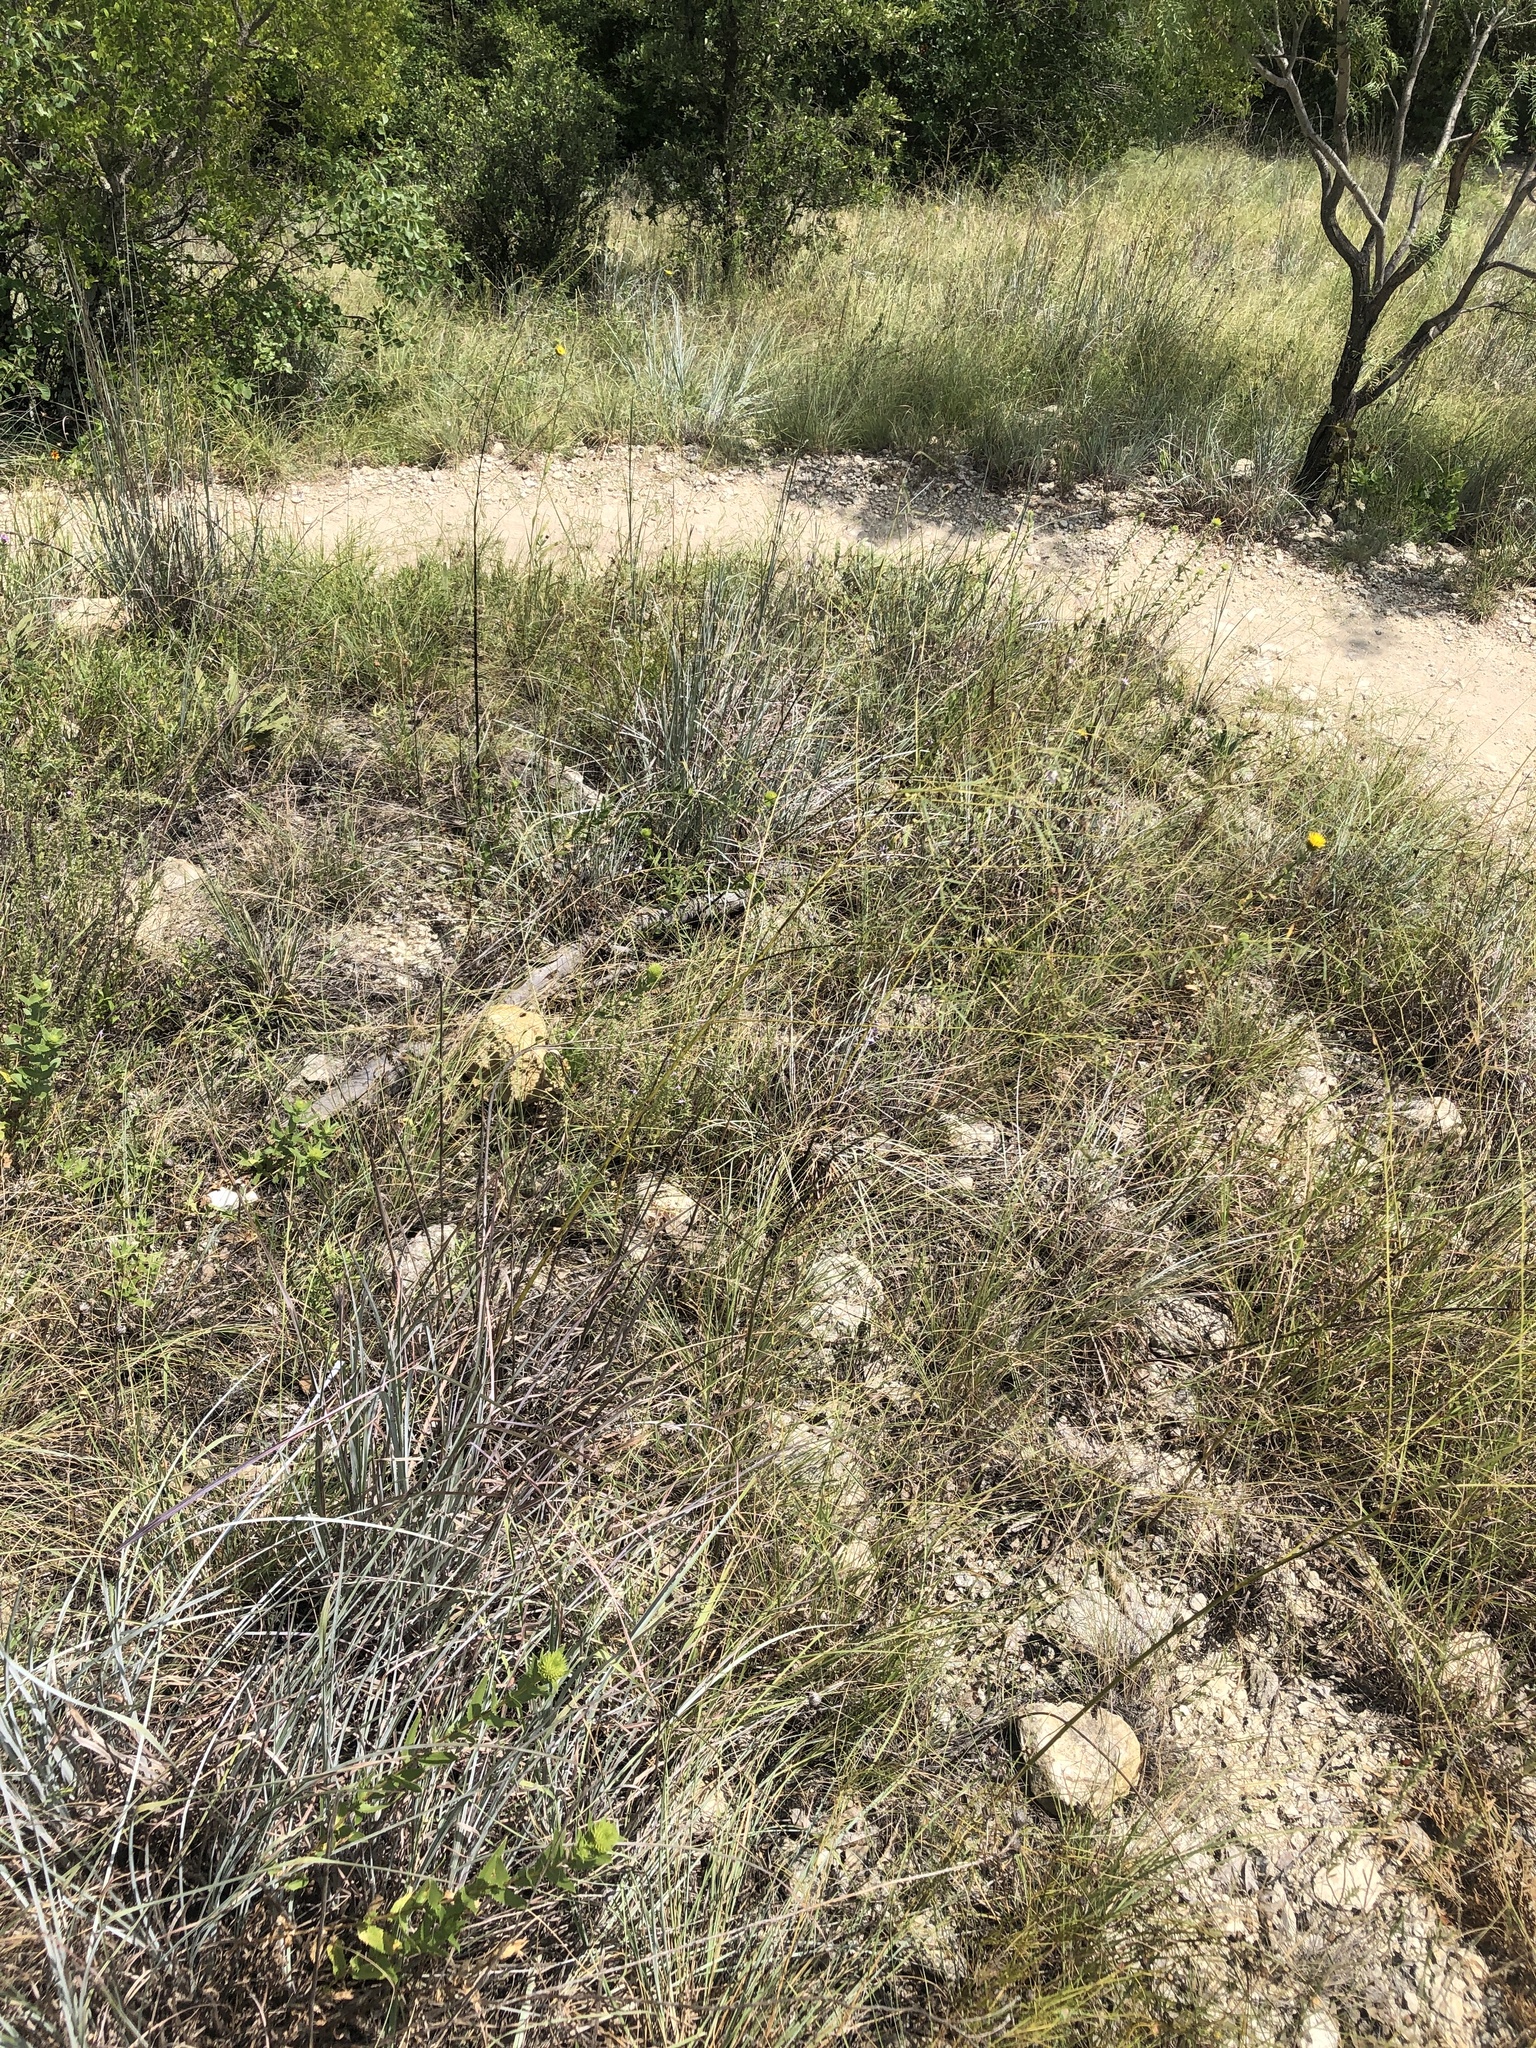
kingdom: Plantae
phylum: Tracheophyta
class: Magnoliopsida
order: Fabales
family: Fabaceae
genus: Pediomelum
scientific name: Pediomelum linearifolium
